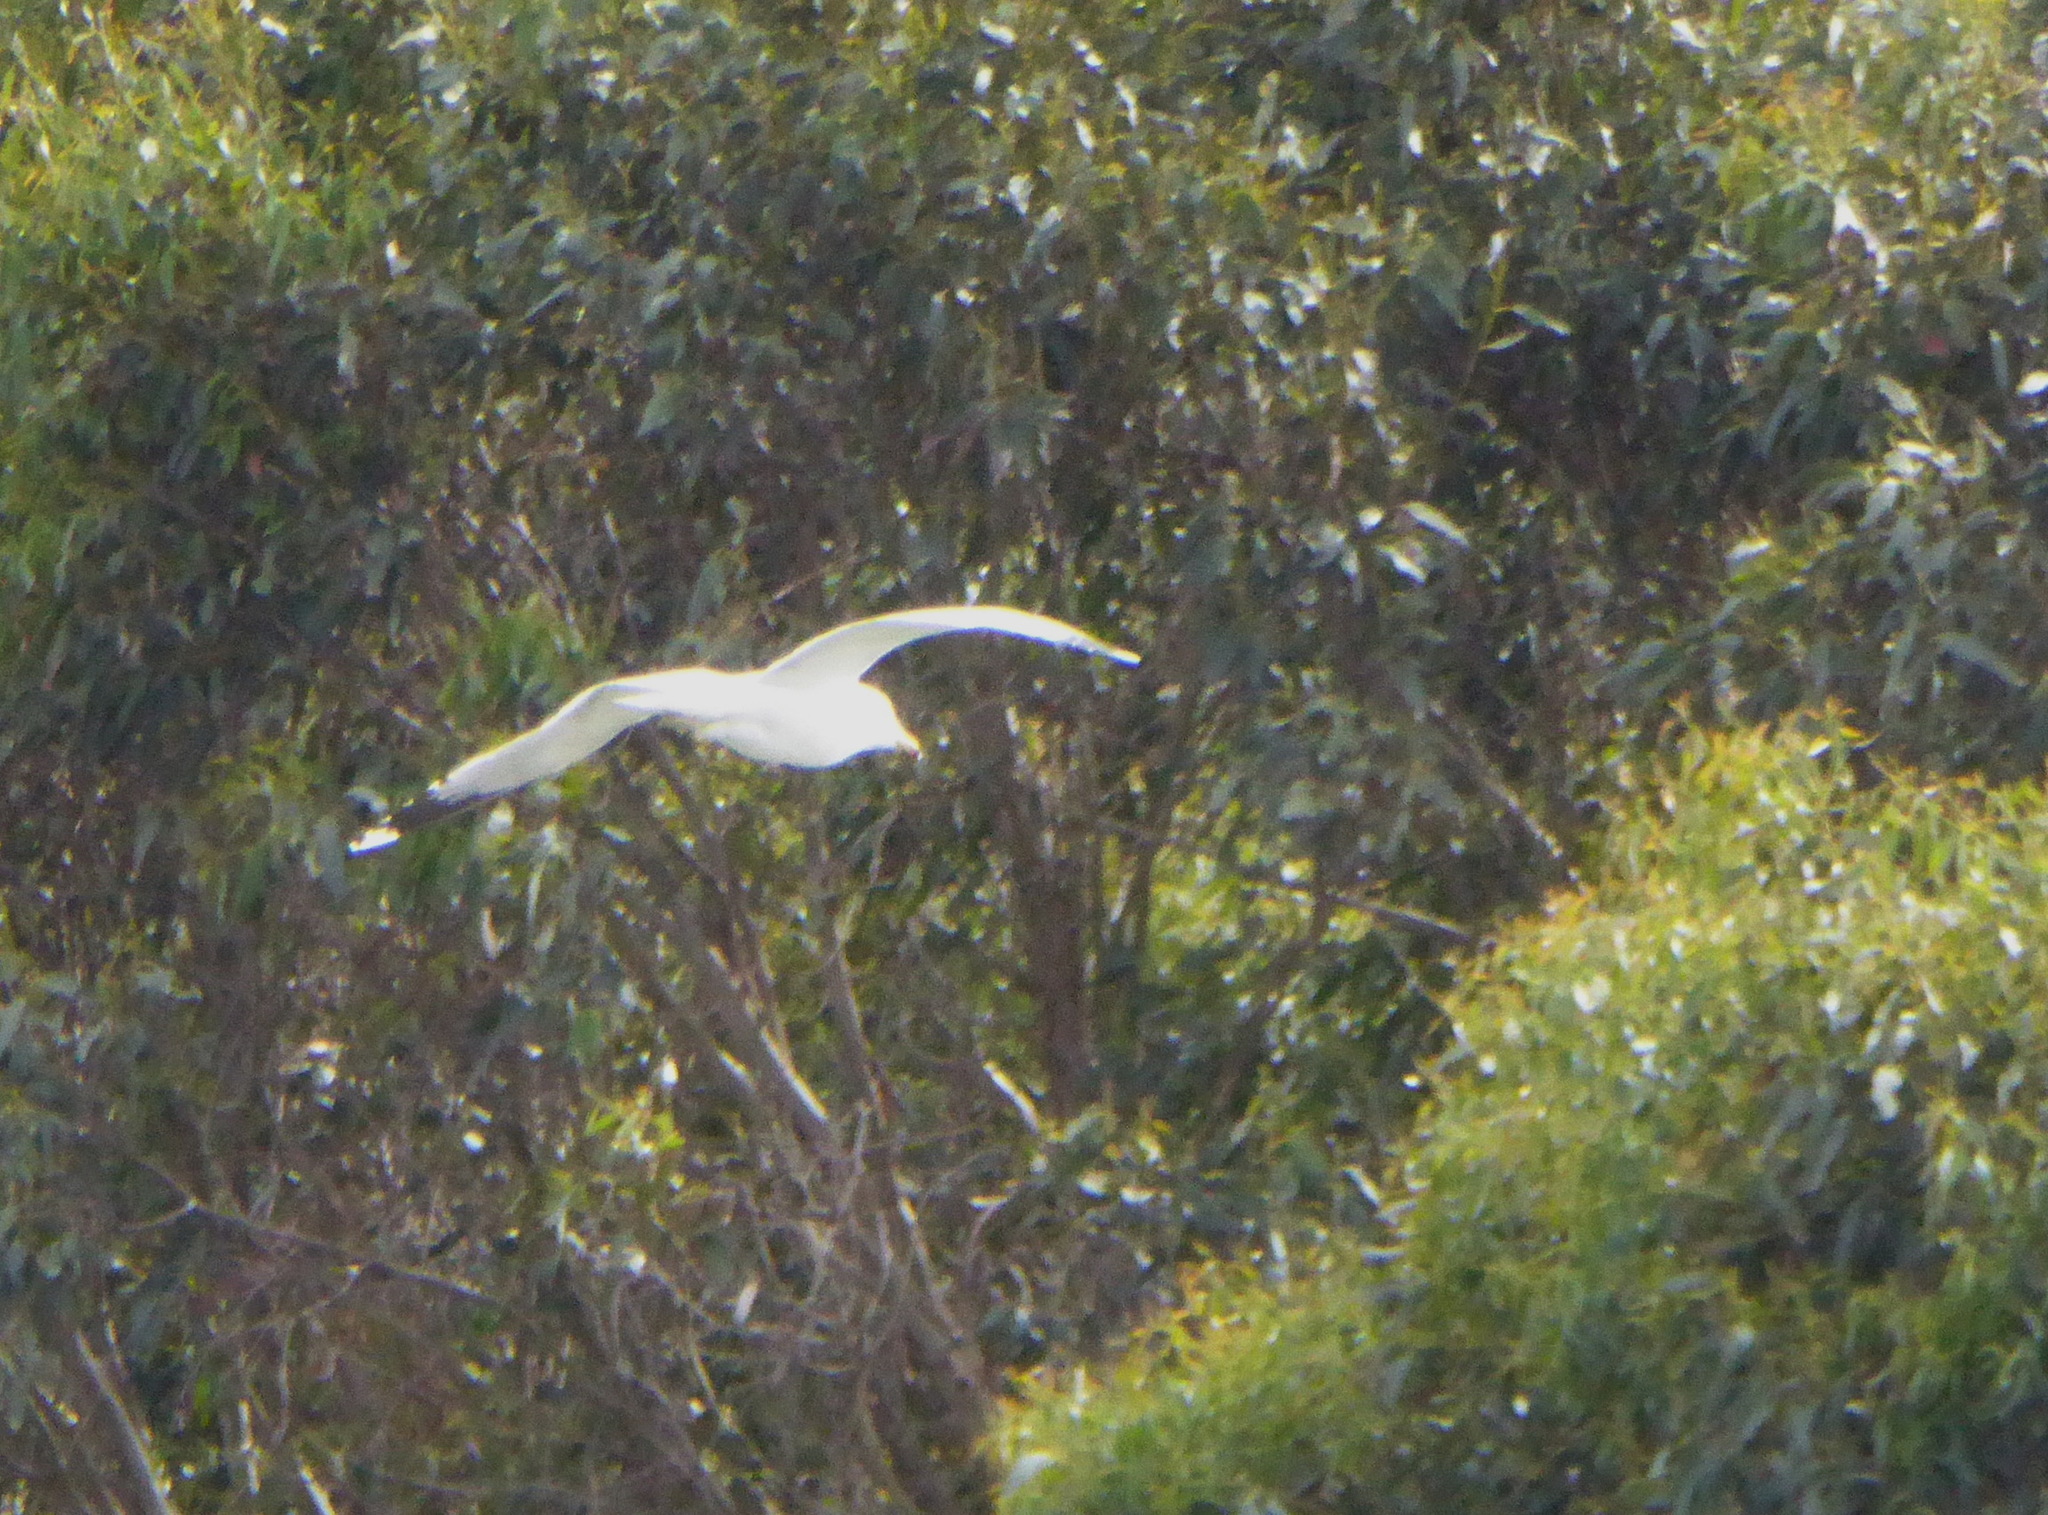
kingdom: Animalia
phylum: Chordata
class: Aves
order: Charadriiformes
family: Laridae
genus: Larus
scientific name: Larus californicus
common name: California gull
